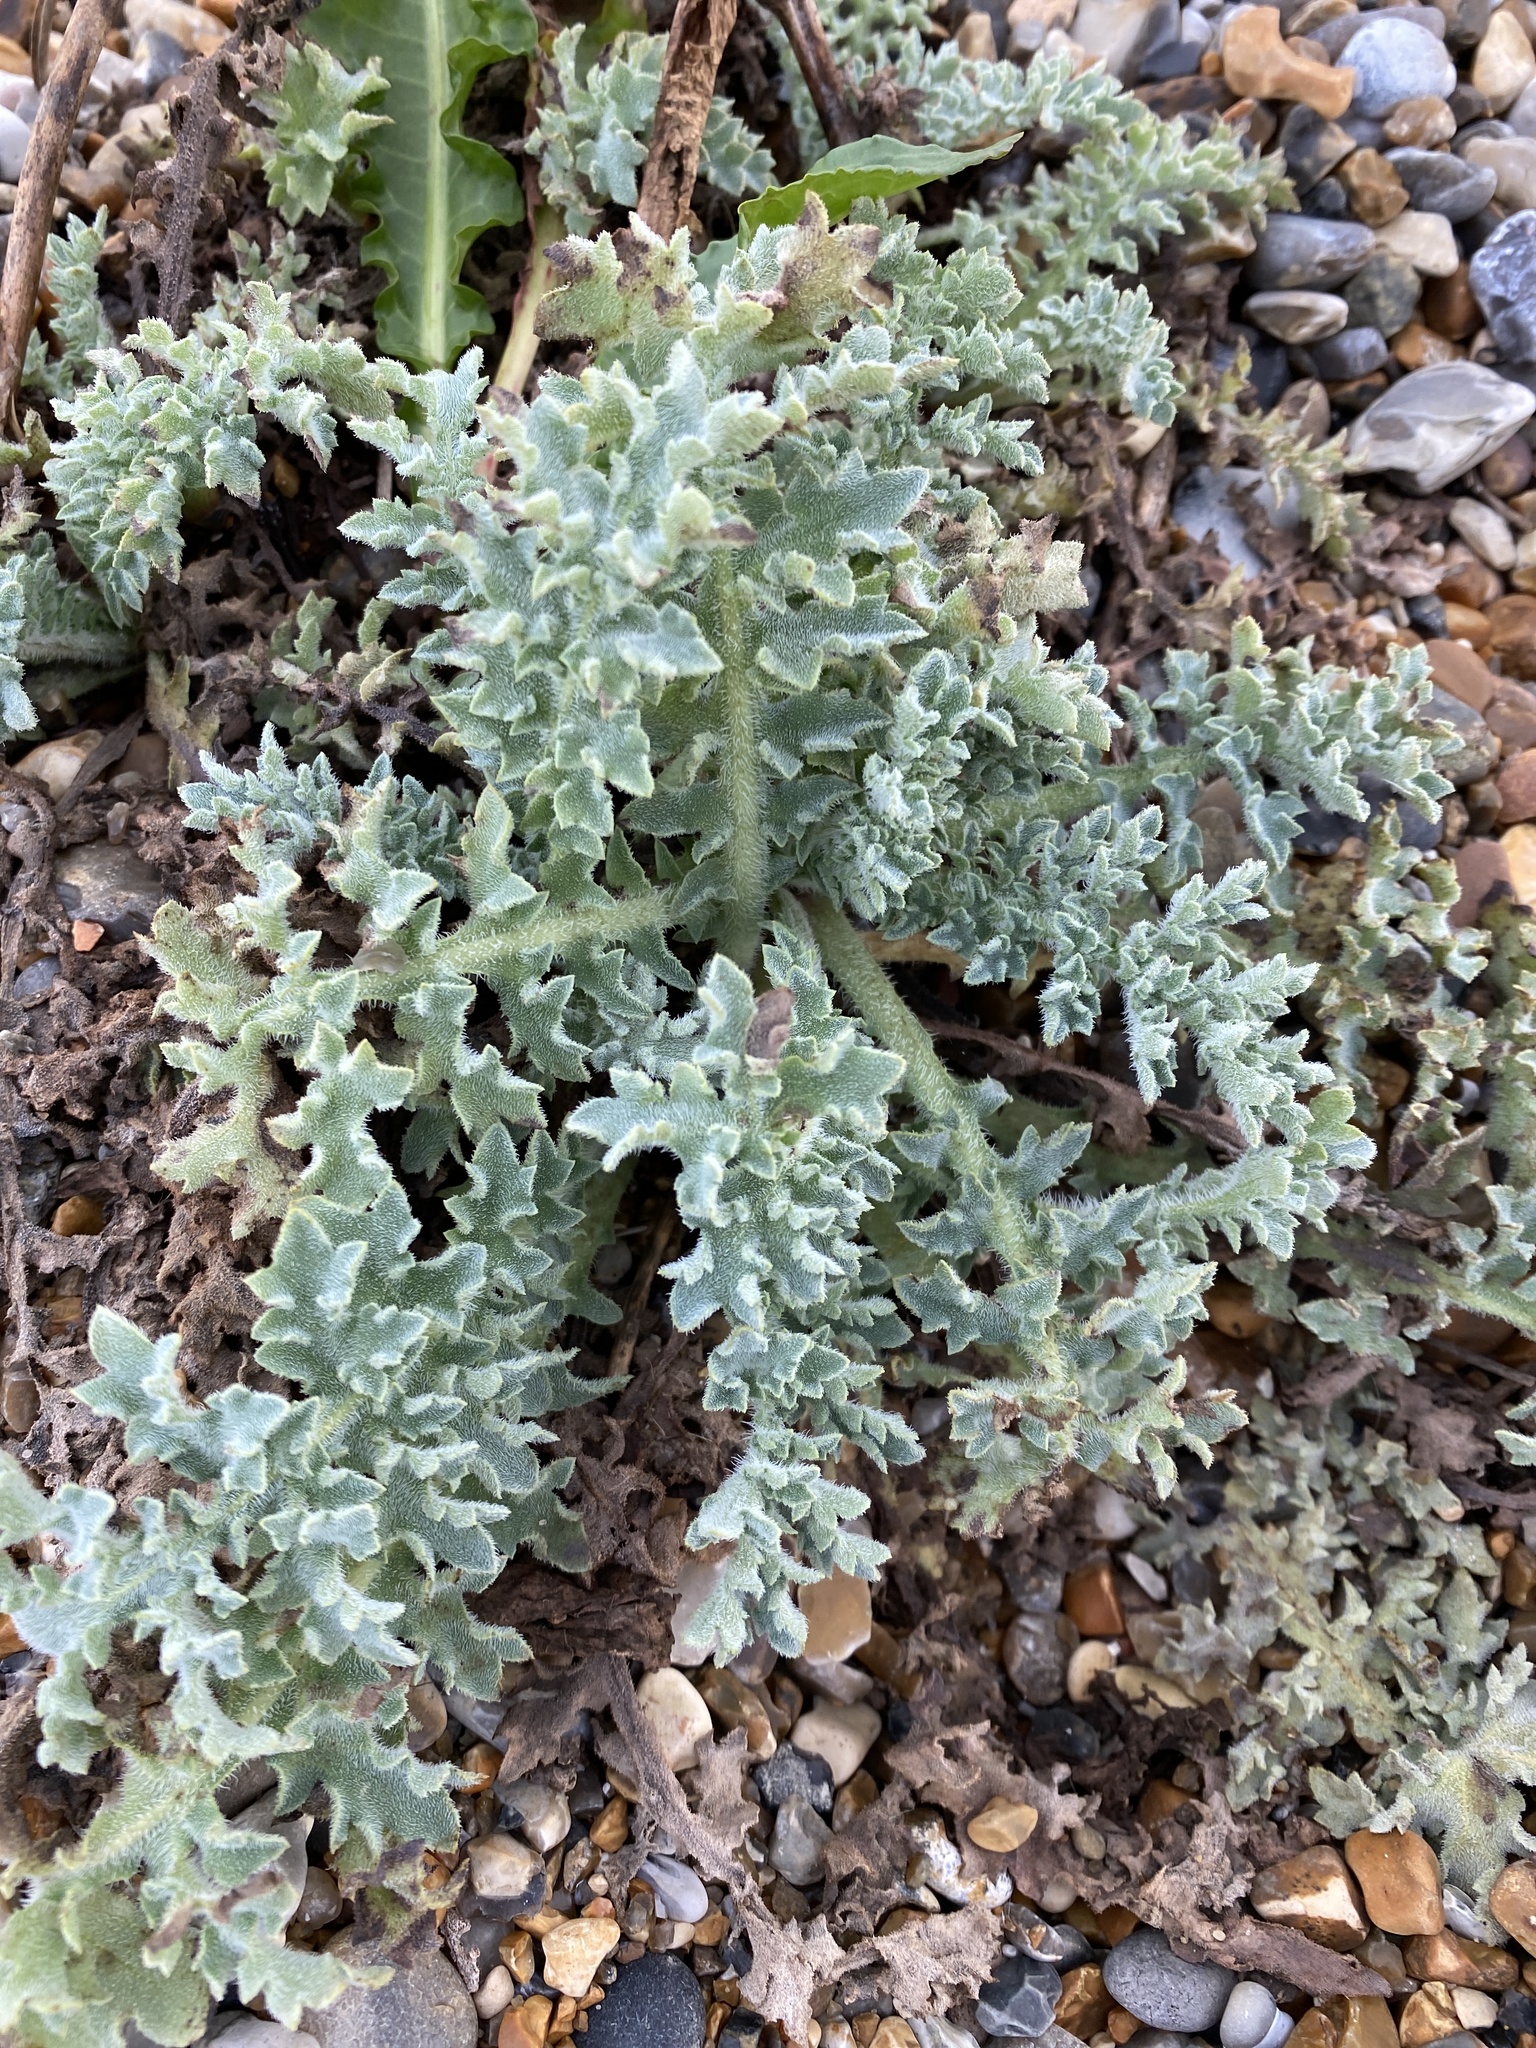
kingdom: Plantae
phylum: Tracheophyta
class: Magnoliopsida
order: Ranunculales
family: Papaveraceae
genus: Glaucium
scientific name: Glaucium flavum
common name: Yellow horned-poppy
